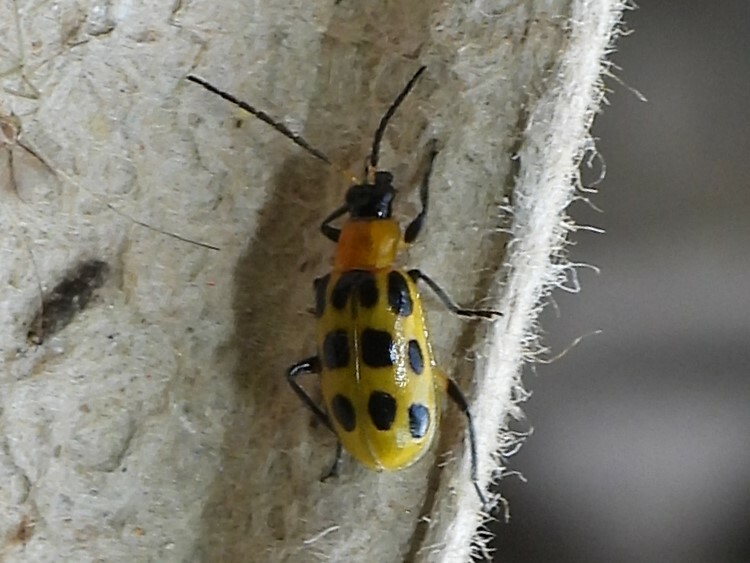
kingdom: Animalia
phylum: Arthropoda
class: Insecta
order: Coleoptera
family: Chrysomelidae
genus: Diabrotica
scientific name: Diabrotica undecimpunctata
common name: Spotted cucumber beetle
